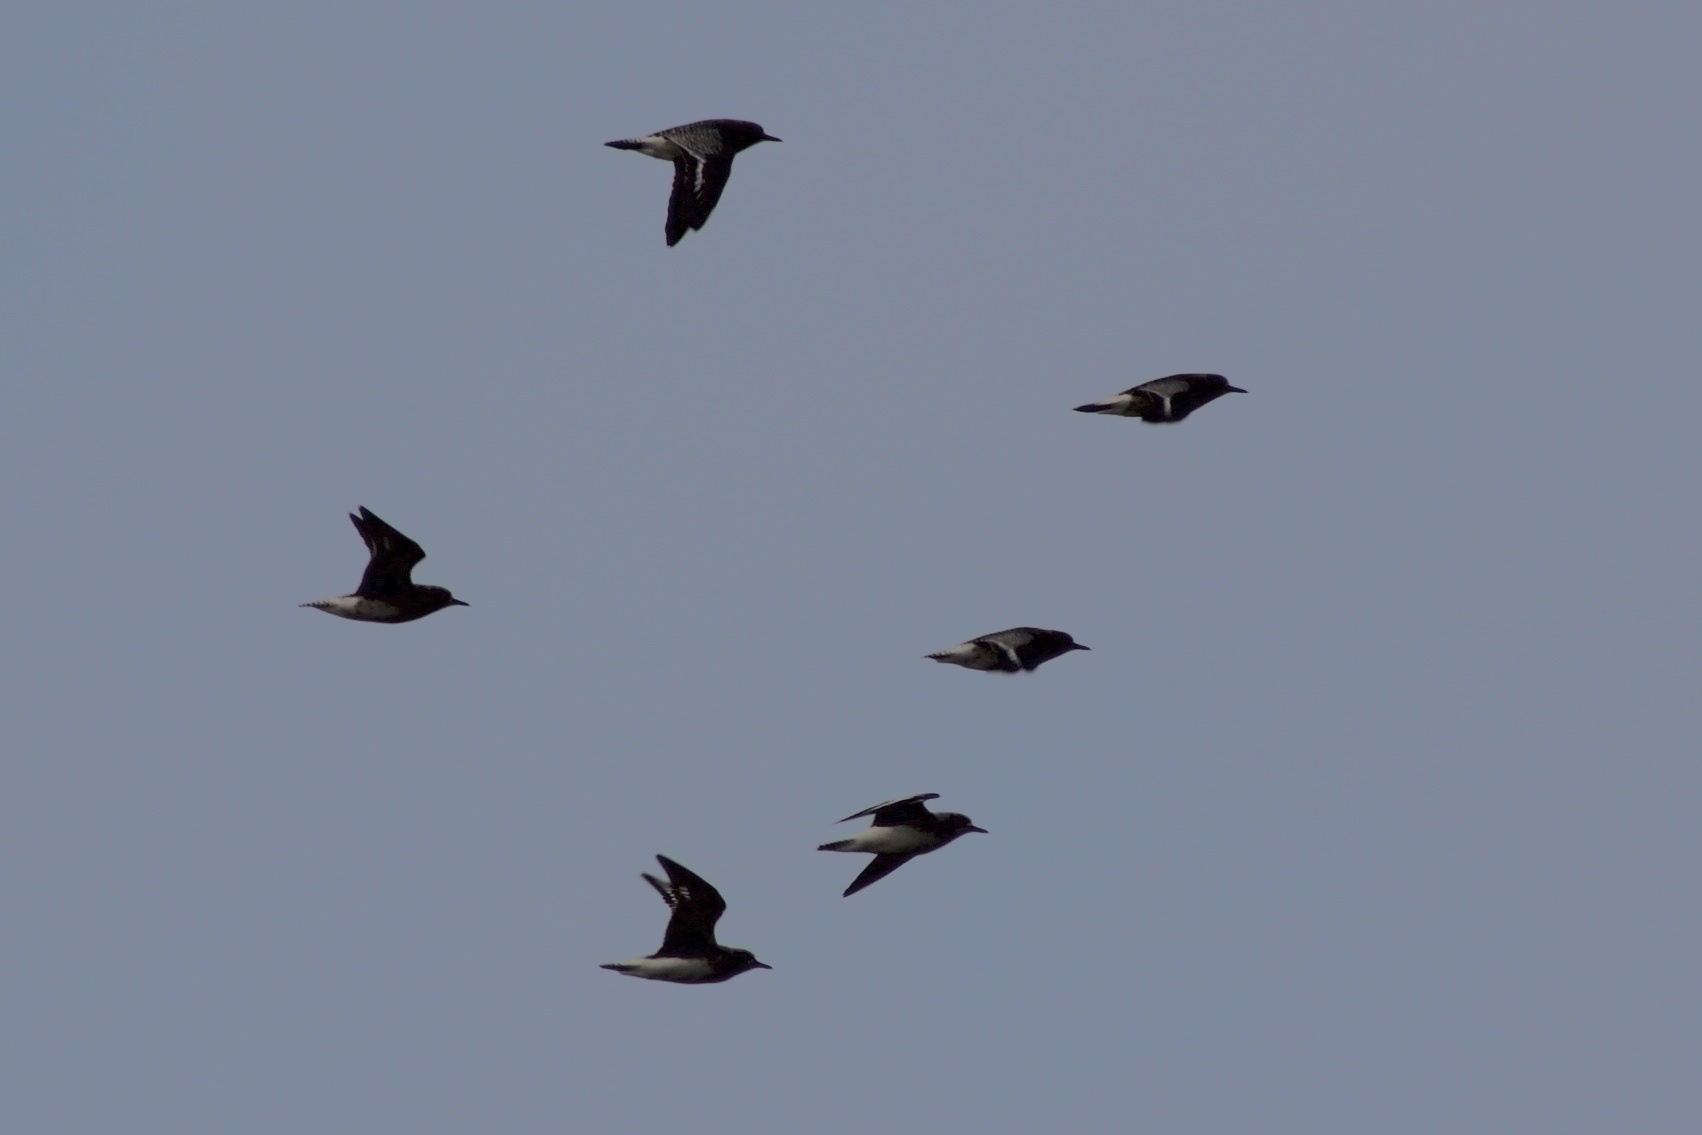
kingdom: Animalia
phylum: Chordata
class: Aves
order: Charadriiformes
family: Charadriidae
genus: Pluvialis
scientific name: Pluvialis squatarola
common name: Grey plover
